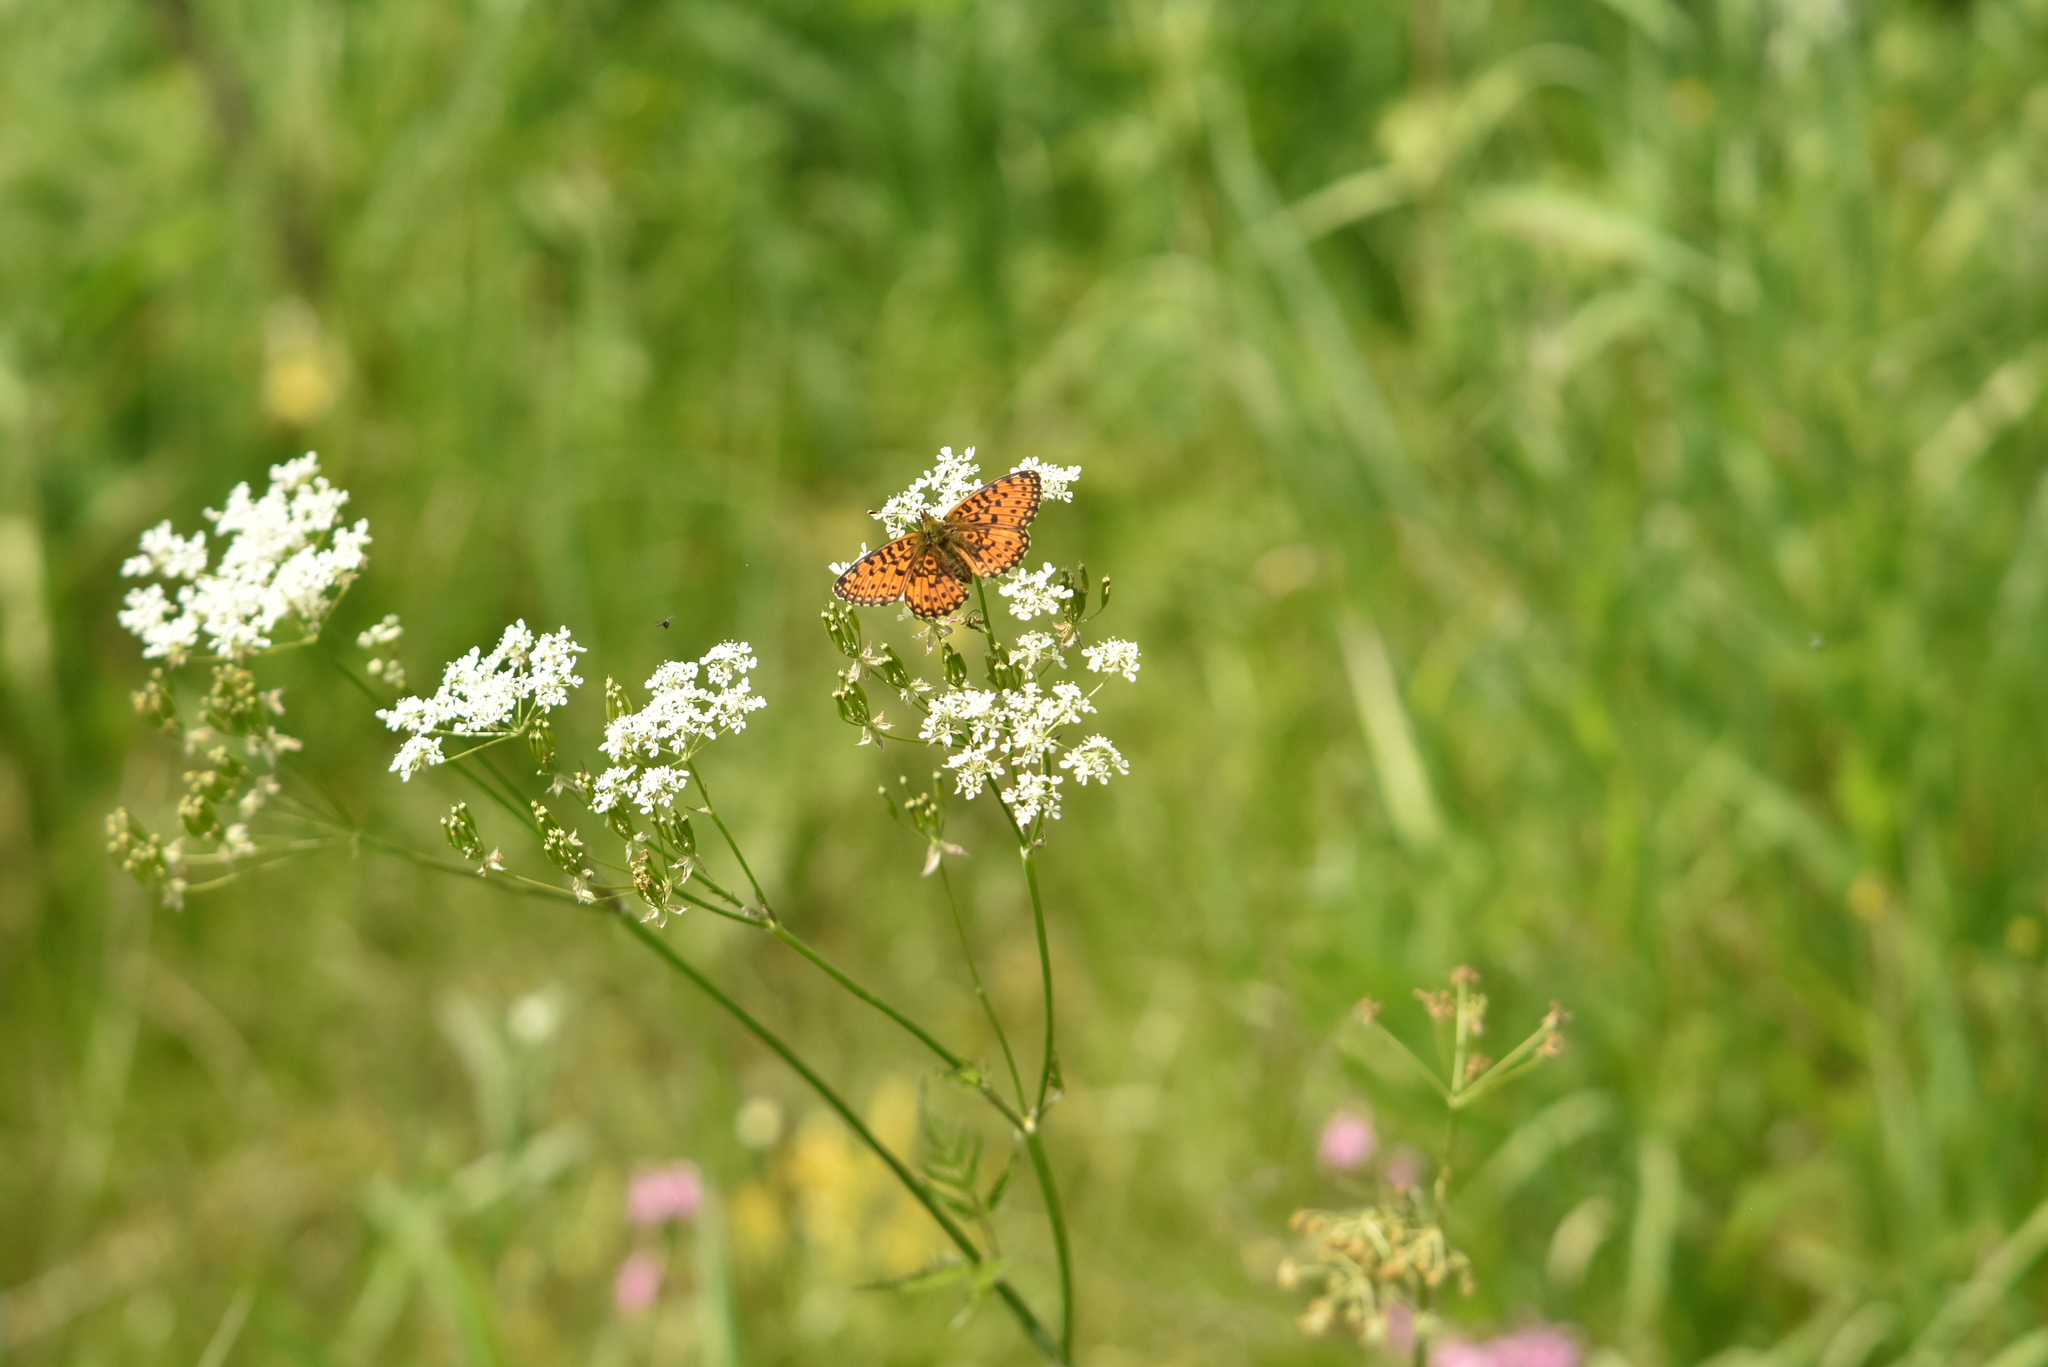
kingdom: Animalia
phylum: Arthropoda
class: Insecta
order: Lepidoptera
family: Nymphalidae
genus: Boloria
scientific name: Boloria selene
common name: Small pearl-bordered fritillary
